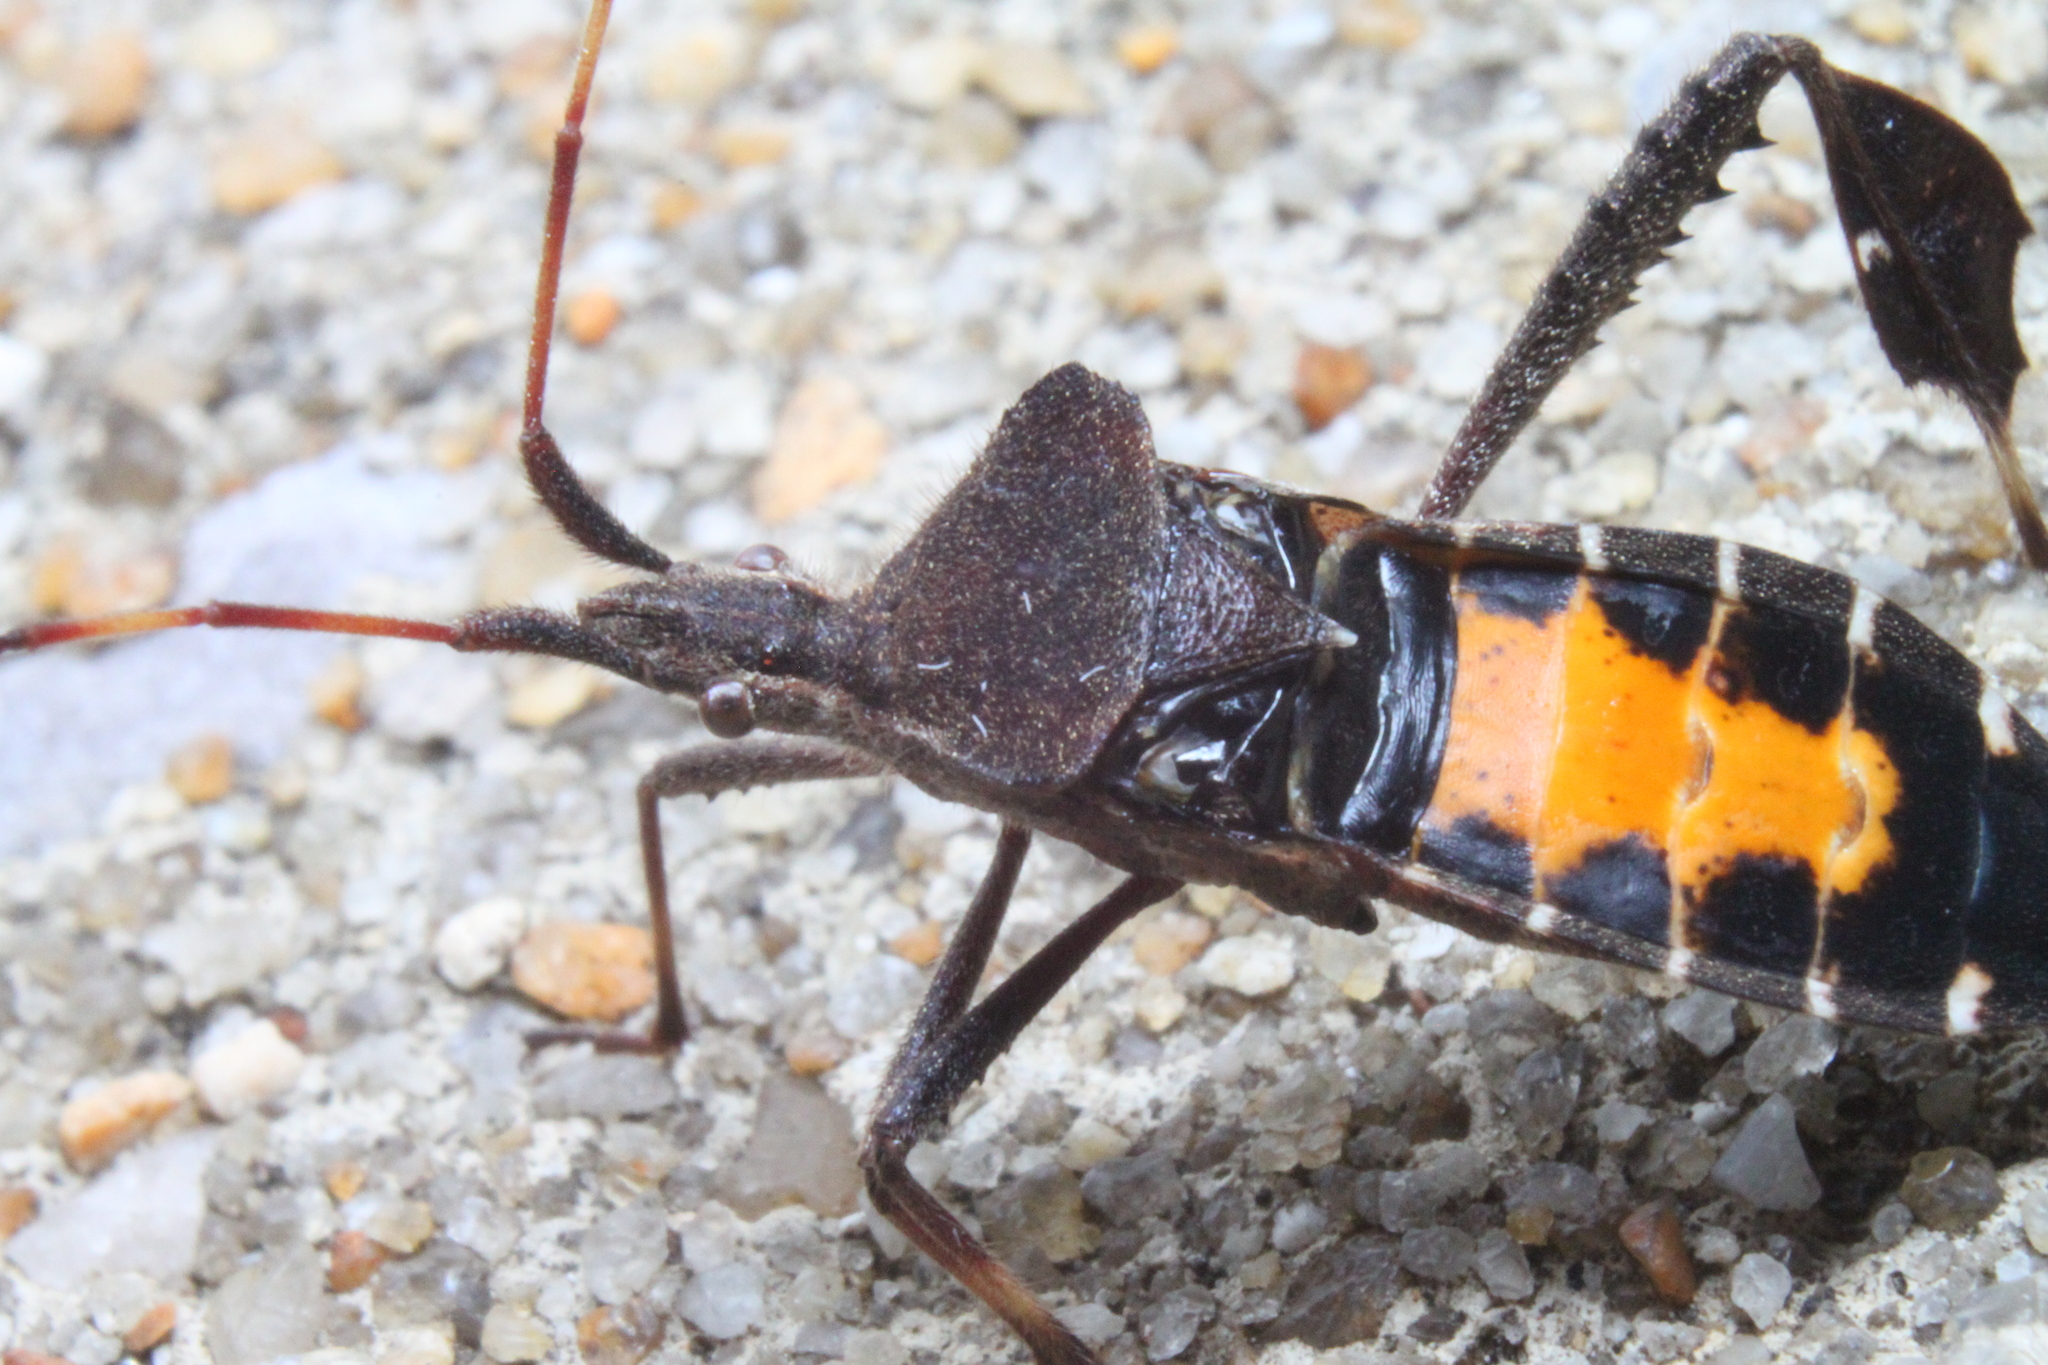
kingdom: Animalia
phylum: Arthropoda
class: Insecta
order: Hemiptera
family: Coreidae
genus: Leptoglossus
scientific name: Leptoglossus phyllopus
